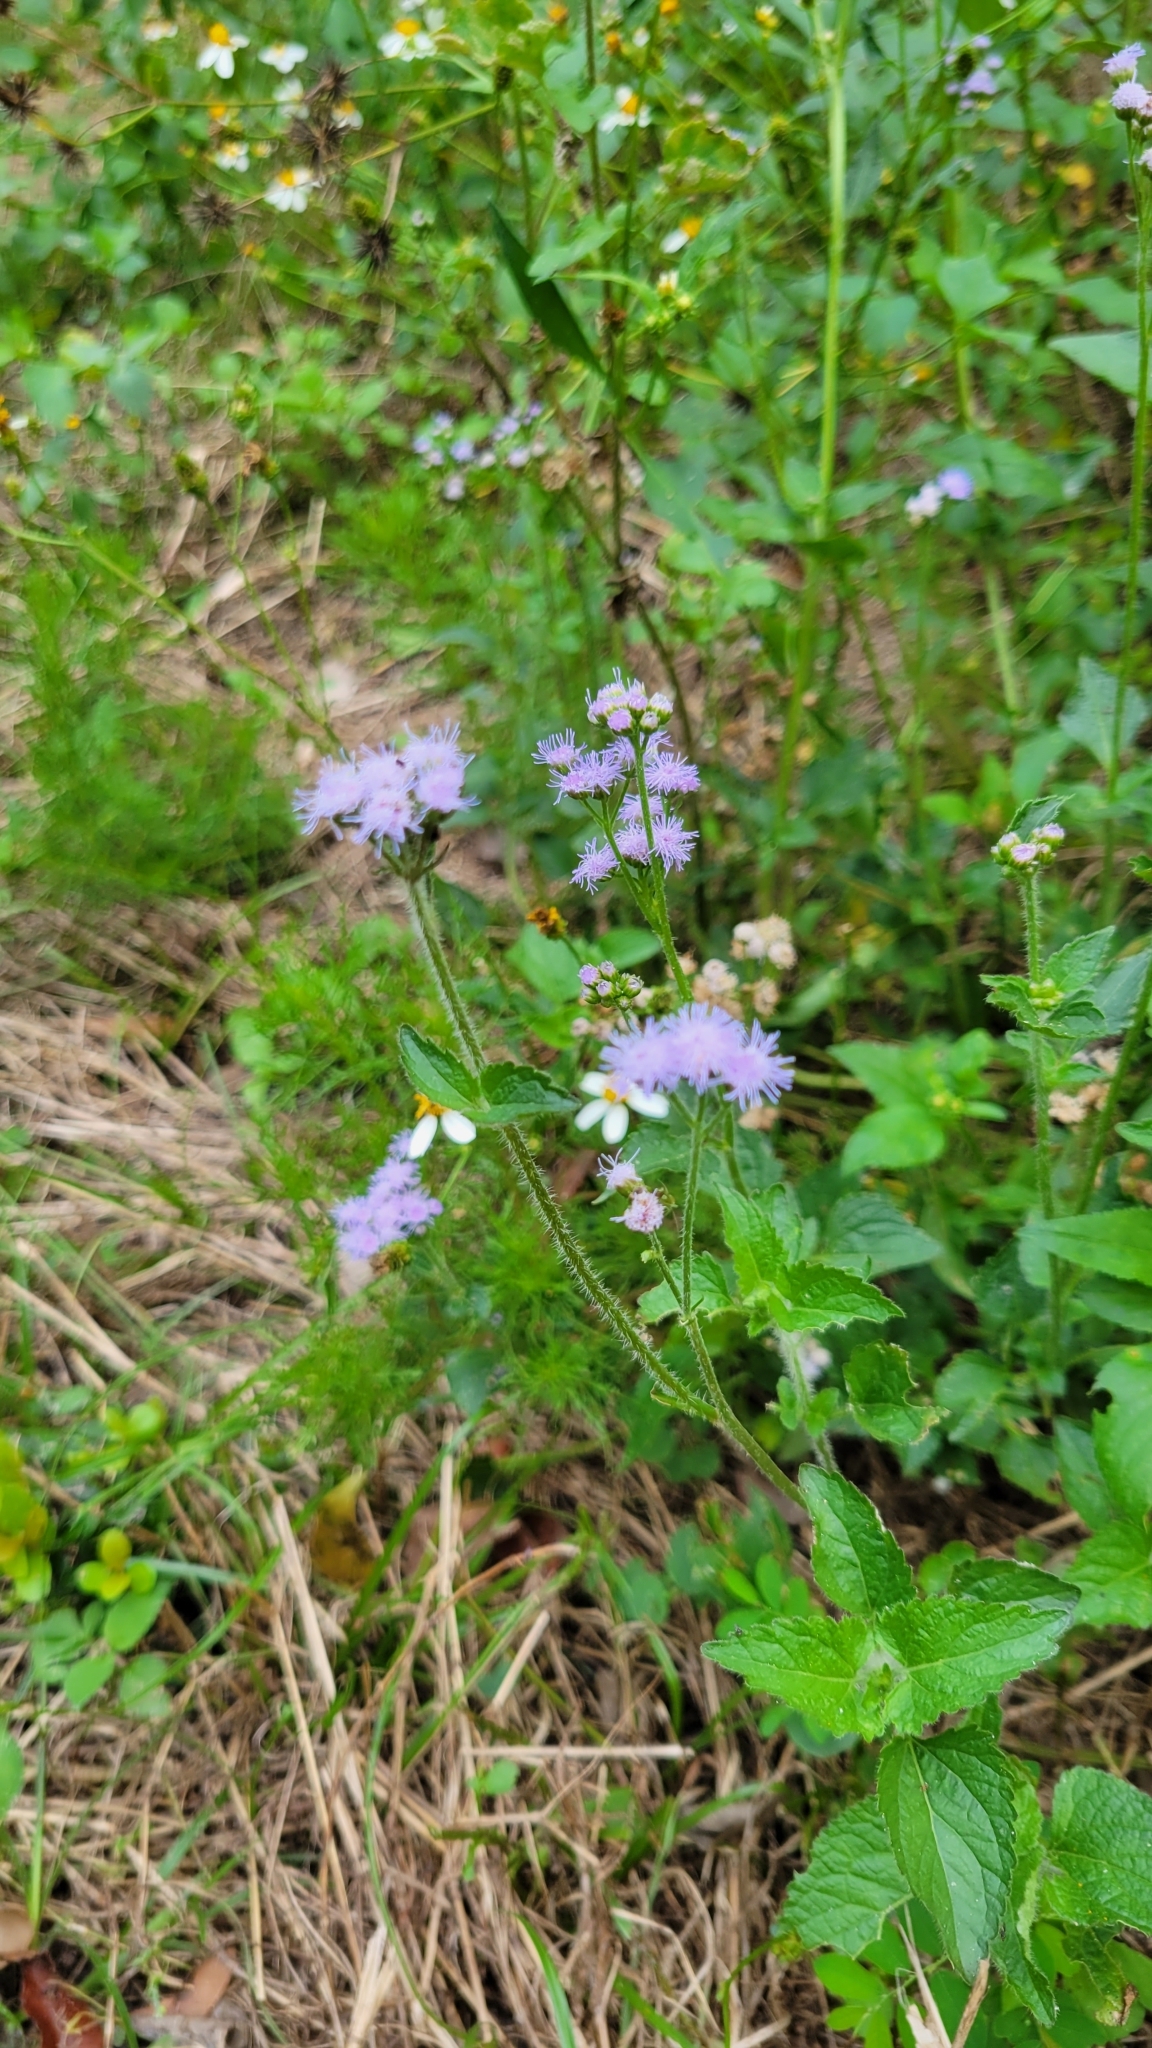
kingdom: Plantae
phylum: Tracheophyta
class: Magnoliopsida
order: Asterales
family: Asteraceae
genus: Conoclinium
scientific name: Conoclinium coelestinum
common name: Blue mistflower
